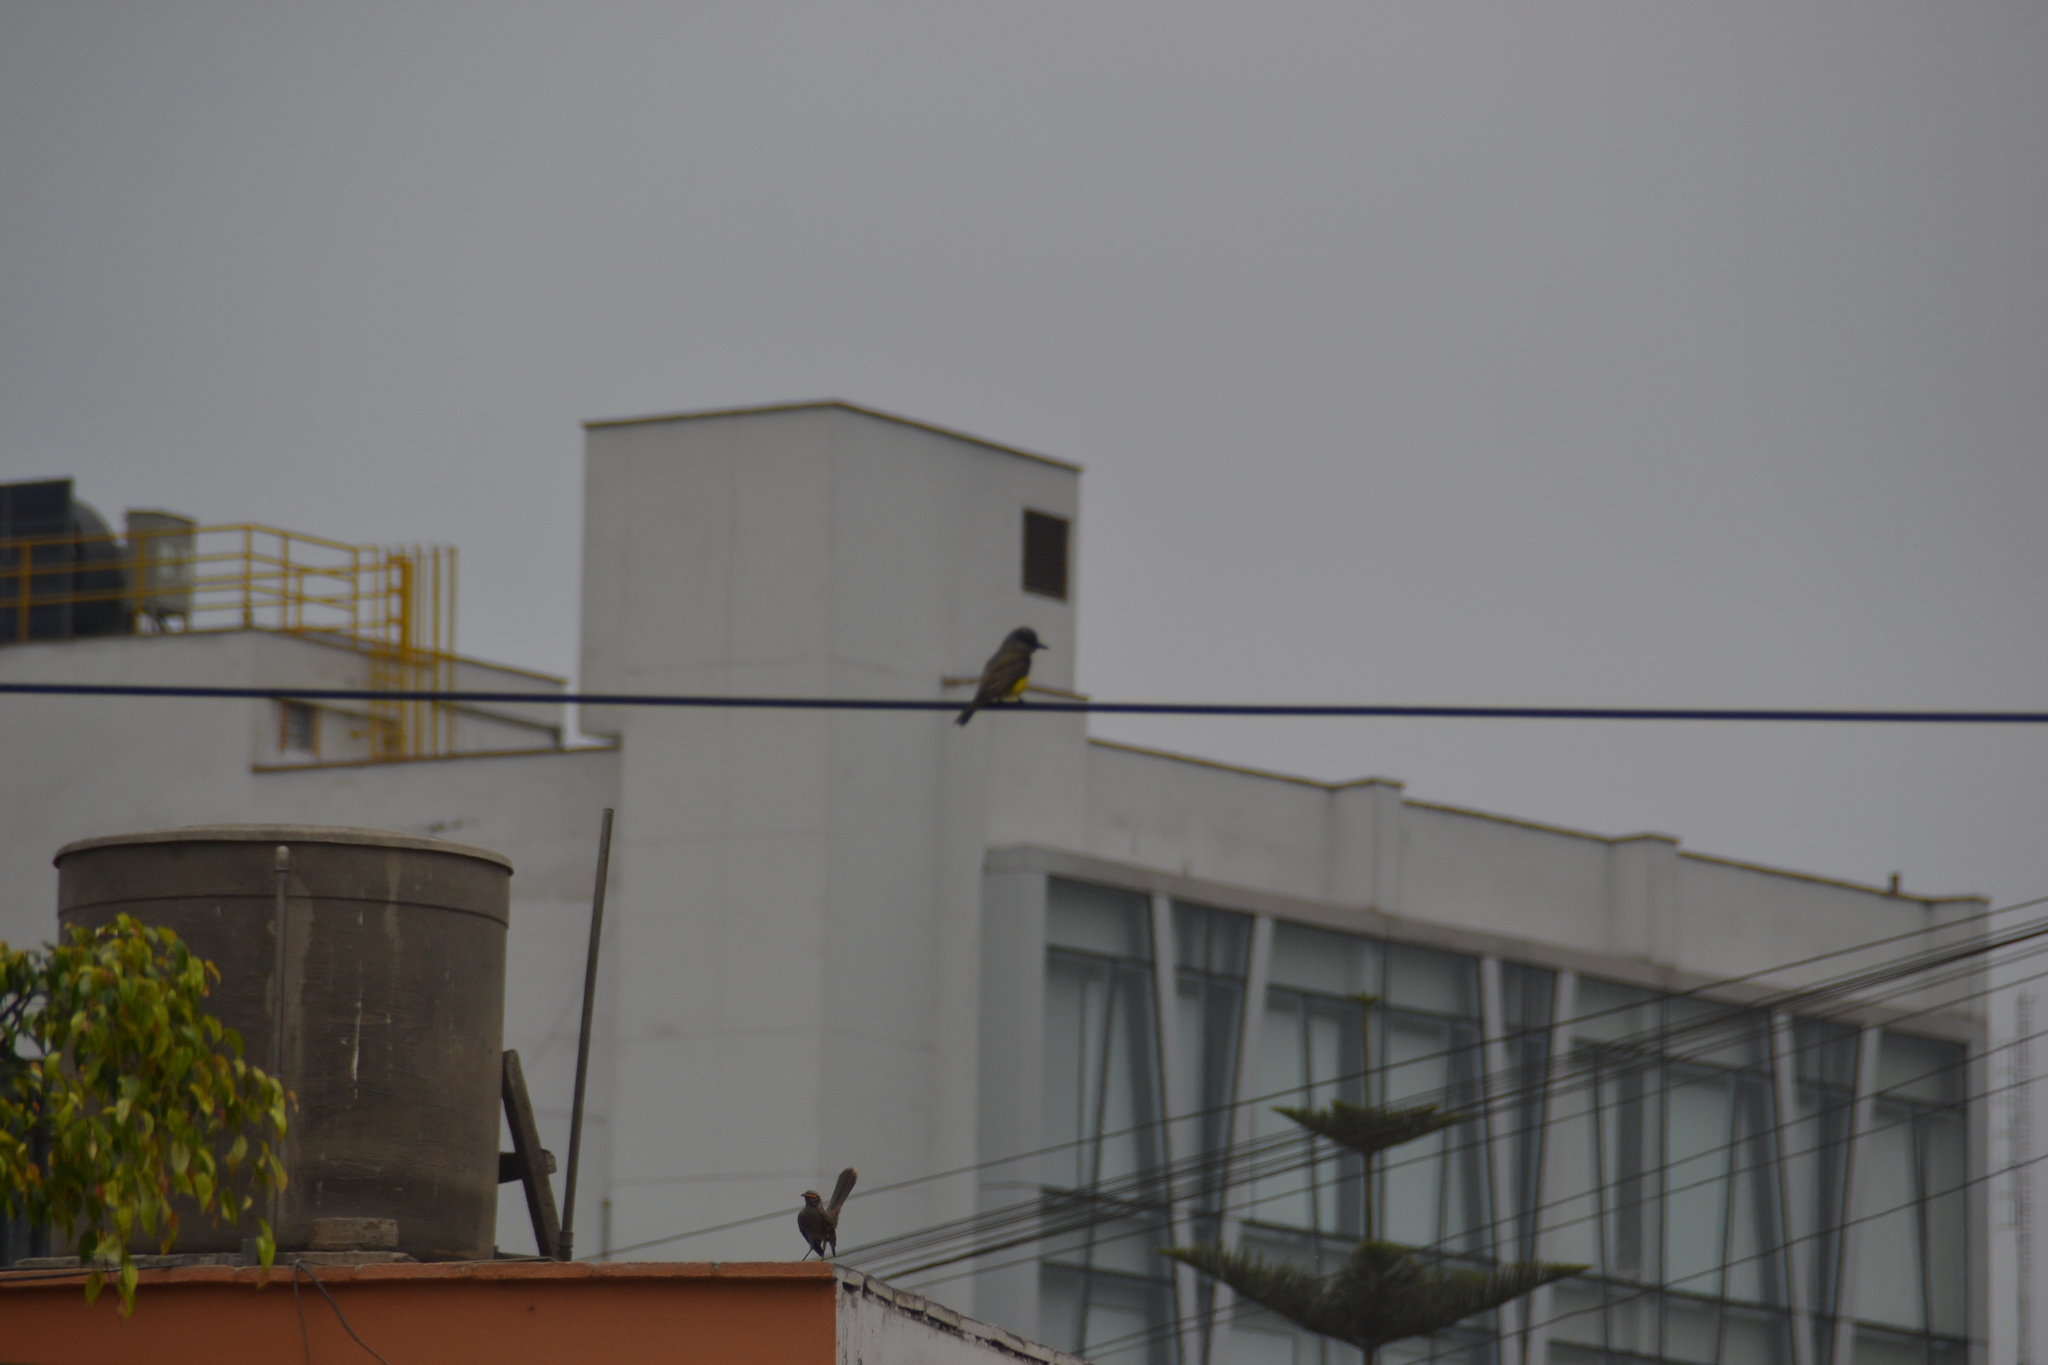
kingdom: Animalia
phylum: Chordata
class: Aves
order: Passeriformes
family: Tyrannidae
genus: Tyrannus
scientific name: Tyrannus melancholicus
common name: Tropical kingbird
